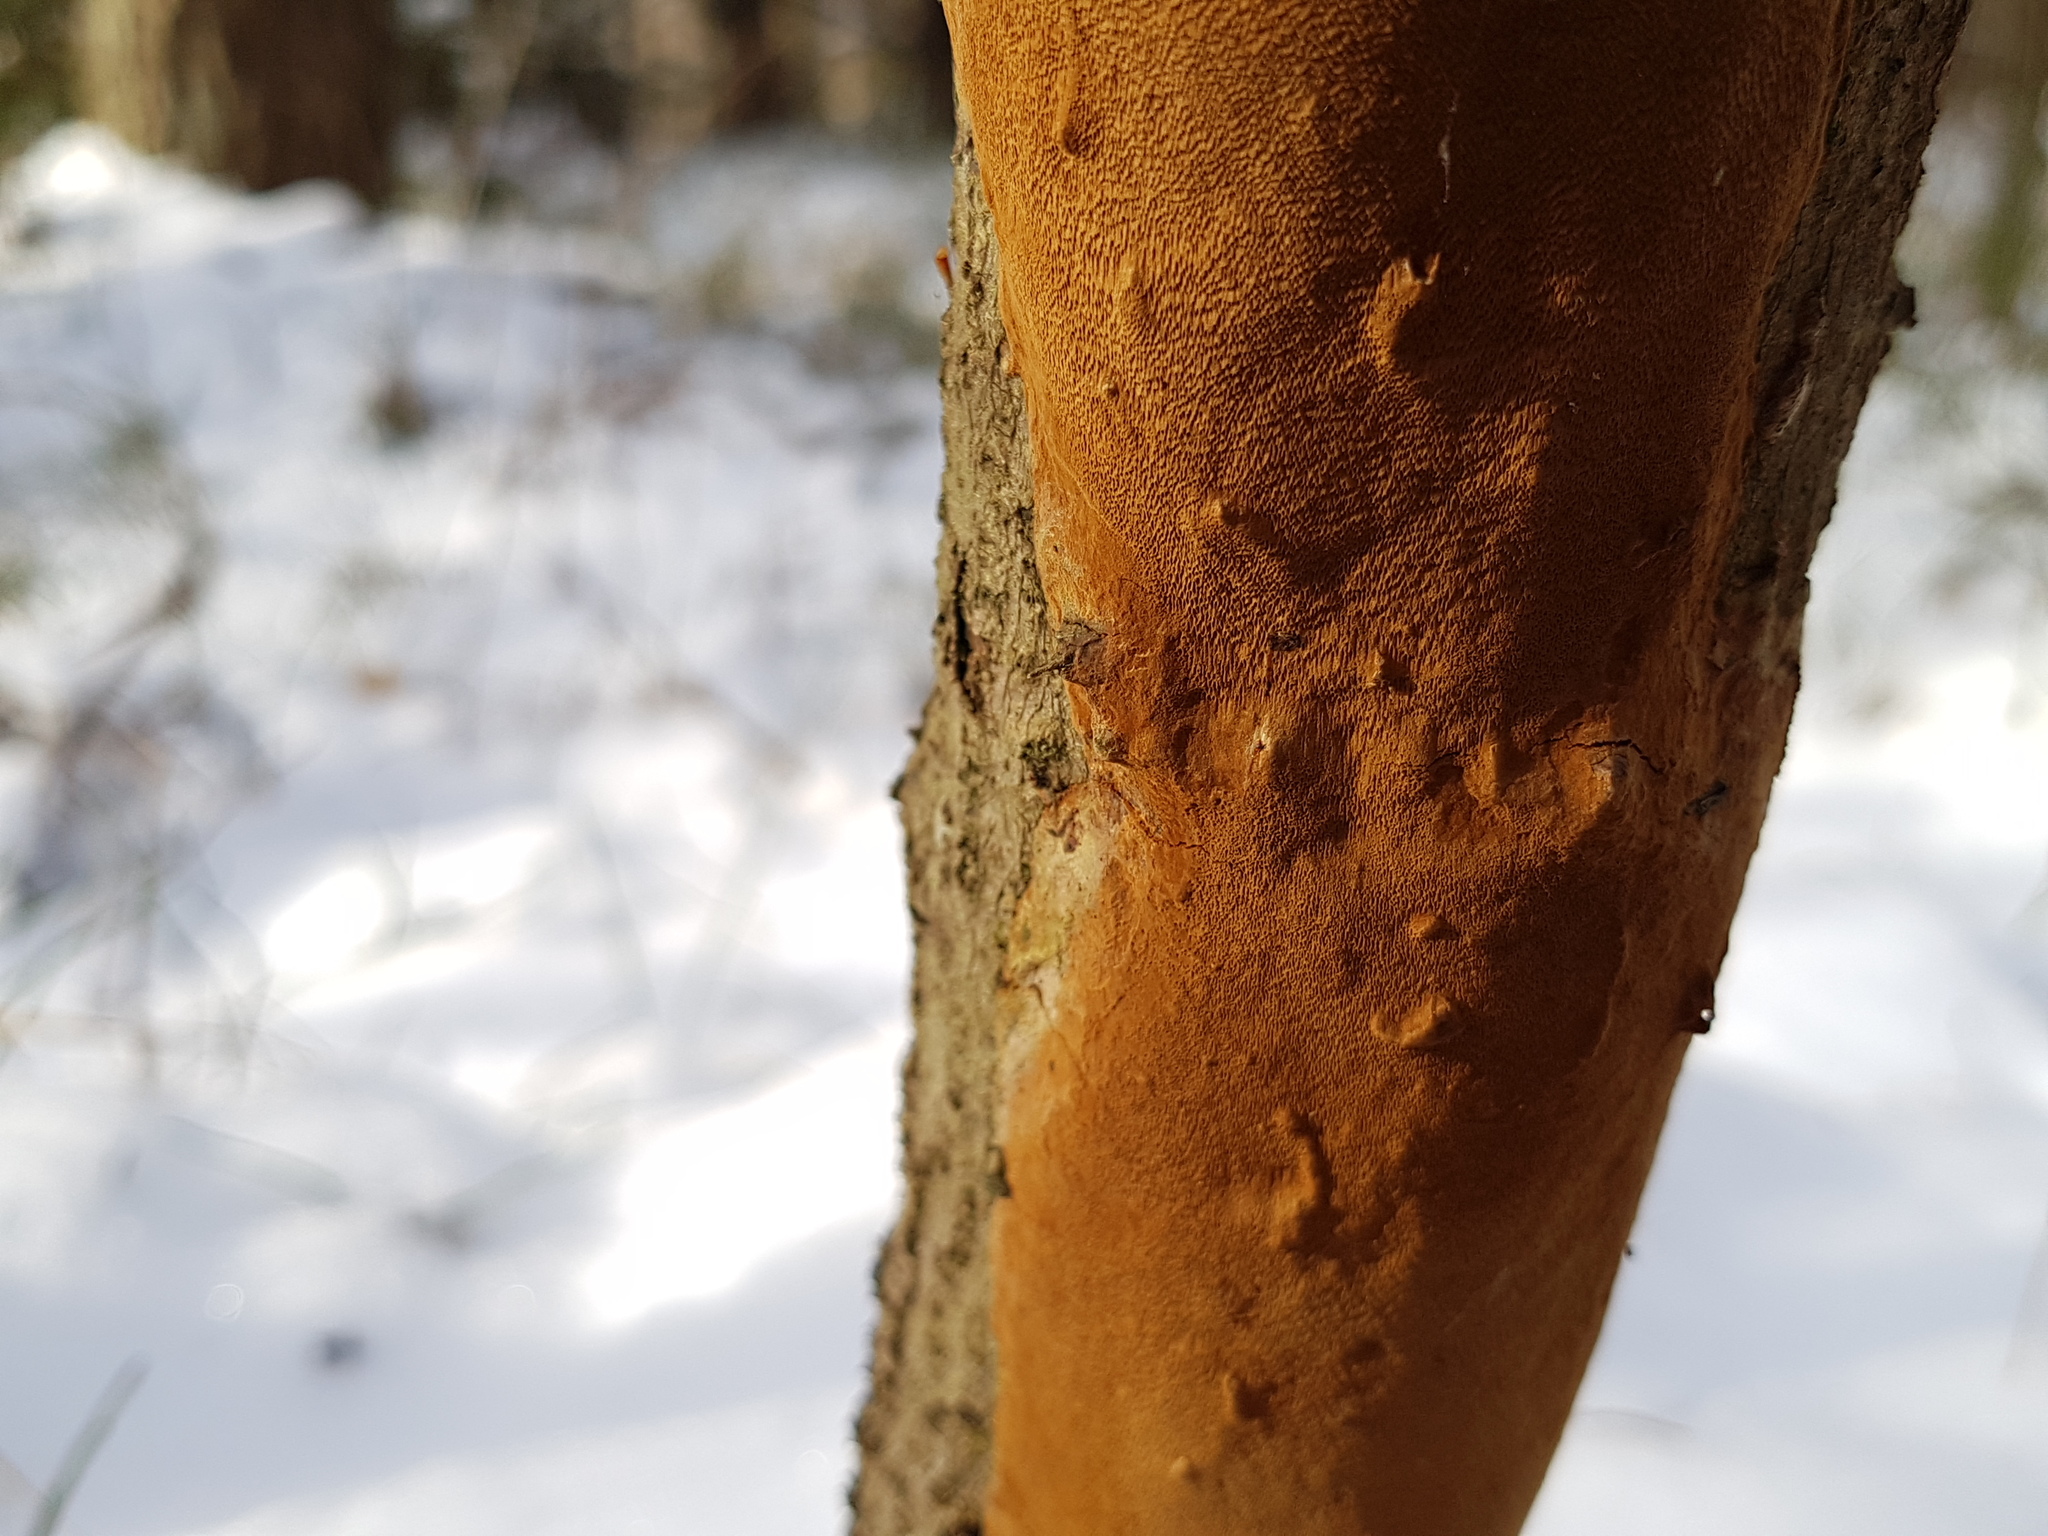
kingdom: Fungi
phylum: Basidiomycota
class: Agaricomycetes
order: Hymenochaetales
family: Hymenochaetaceae
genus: Fomitiporia
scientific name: Fomitiporia punctata
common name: Elbowpatch crust
